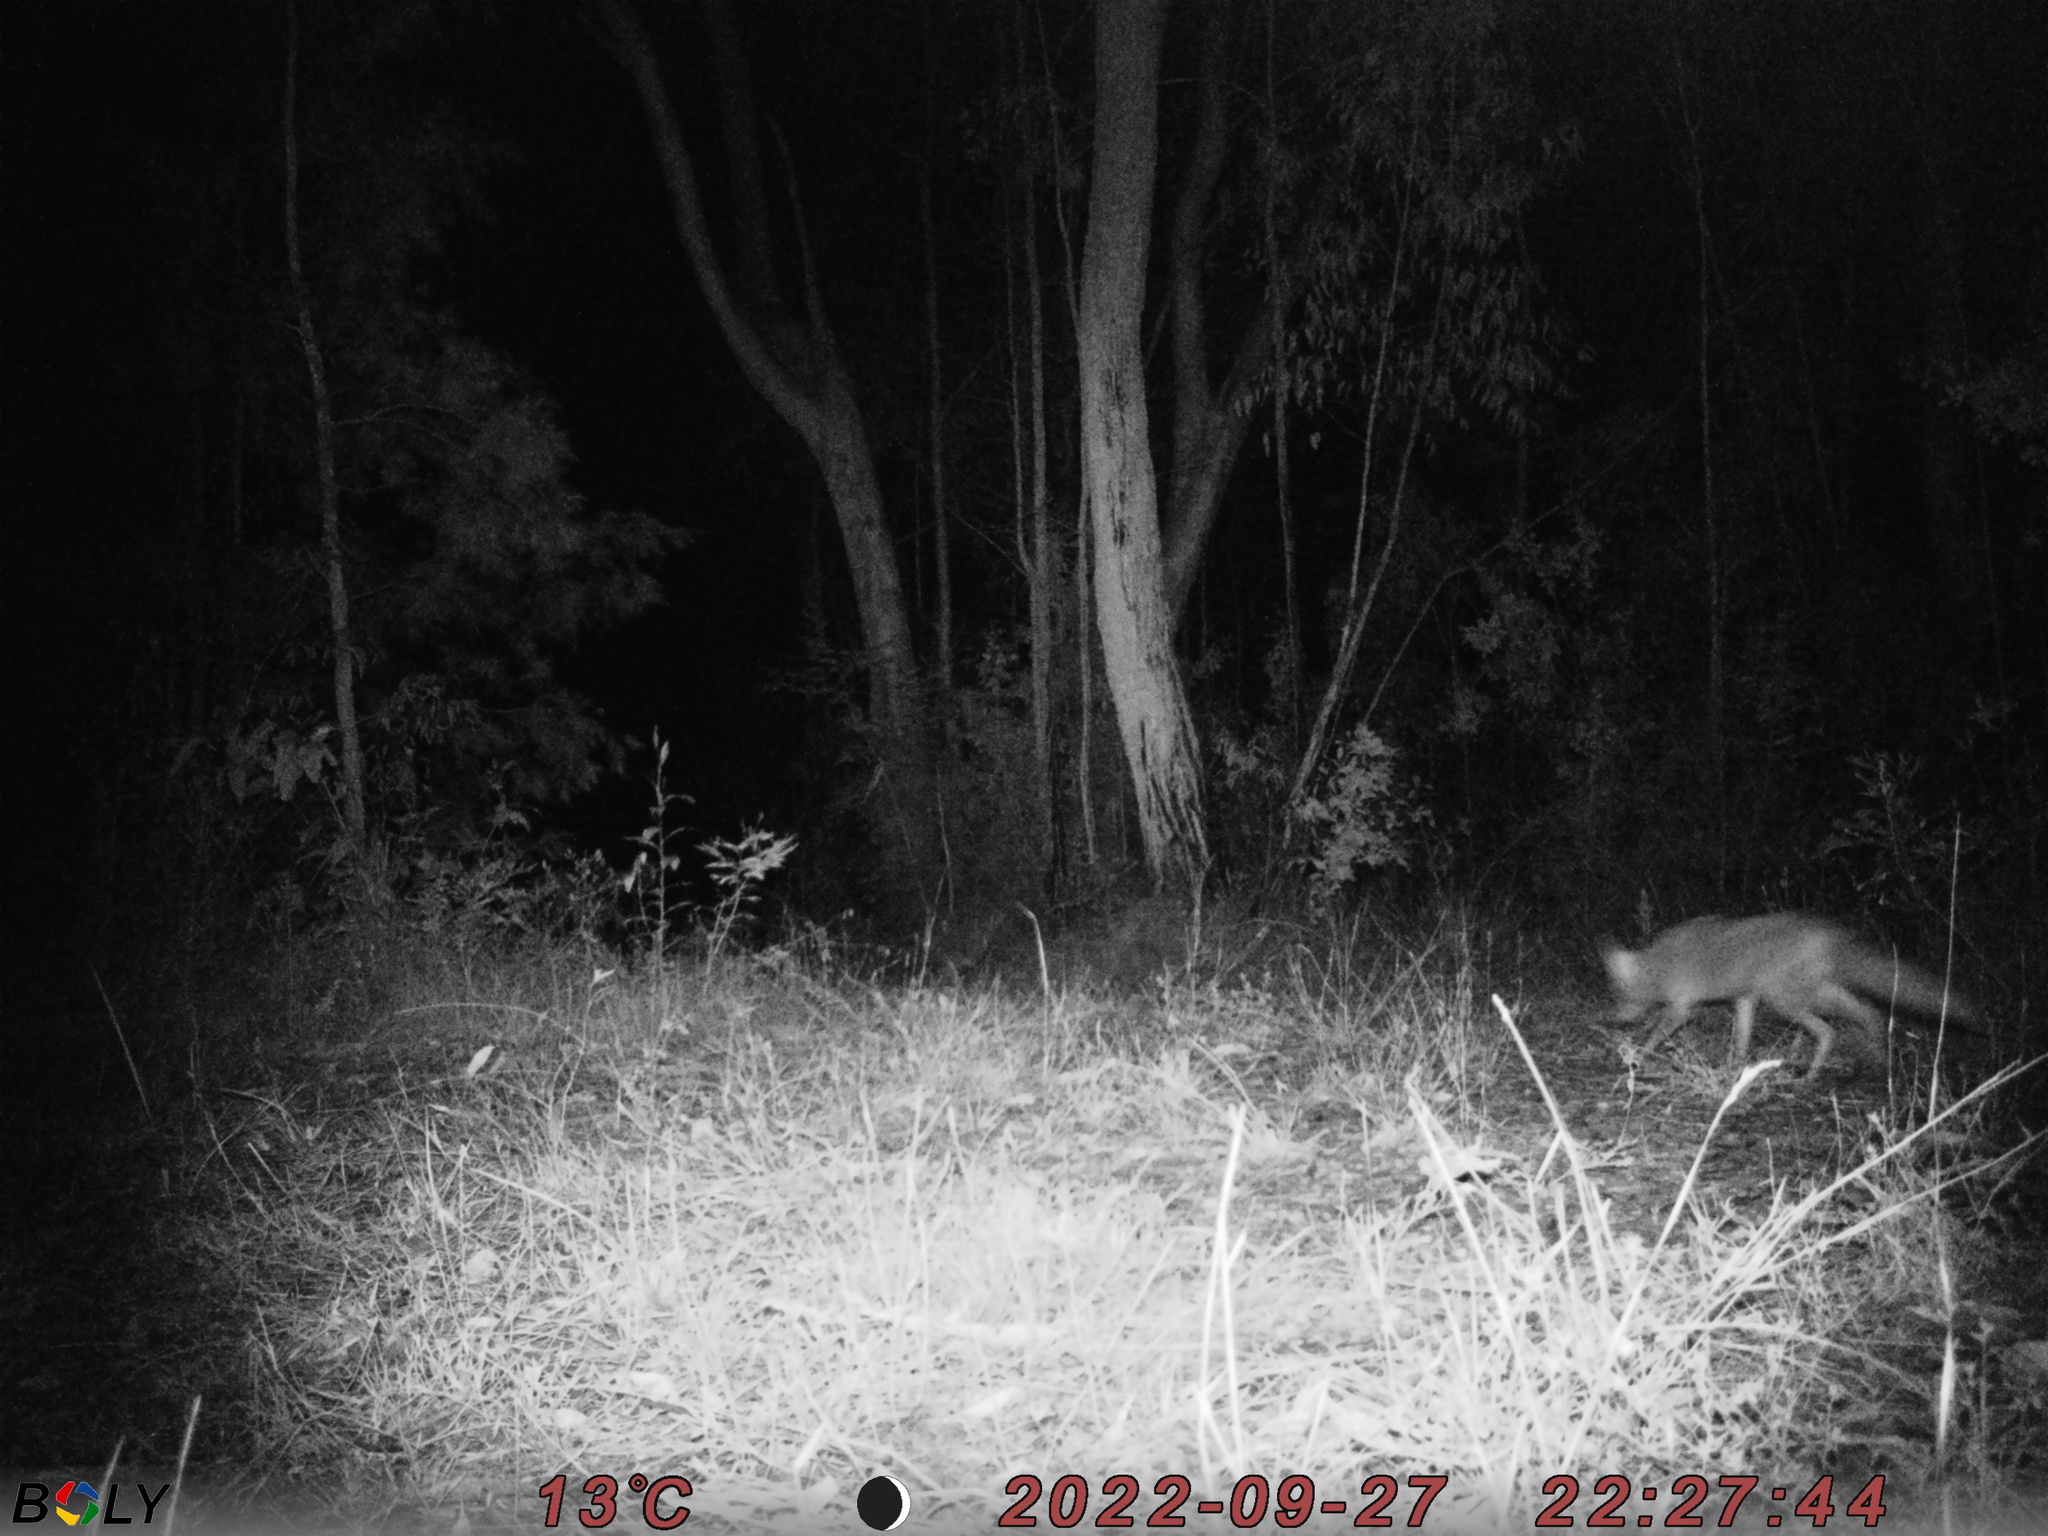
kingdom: Animalia
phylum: Chordata
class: Mammalia
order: Carnivora
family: Canidae
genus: Vulpes
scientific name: Vulpes vulpes
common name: Red fox
